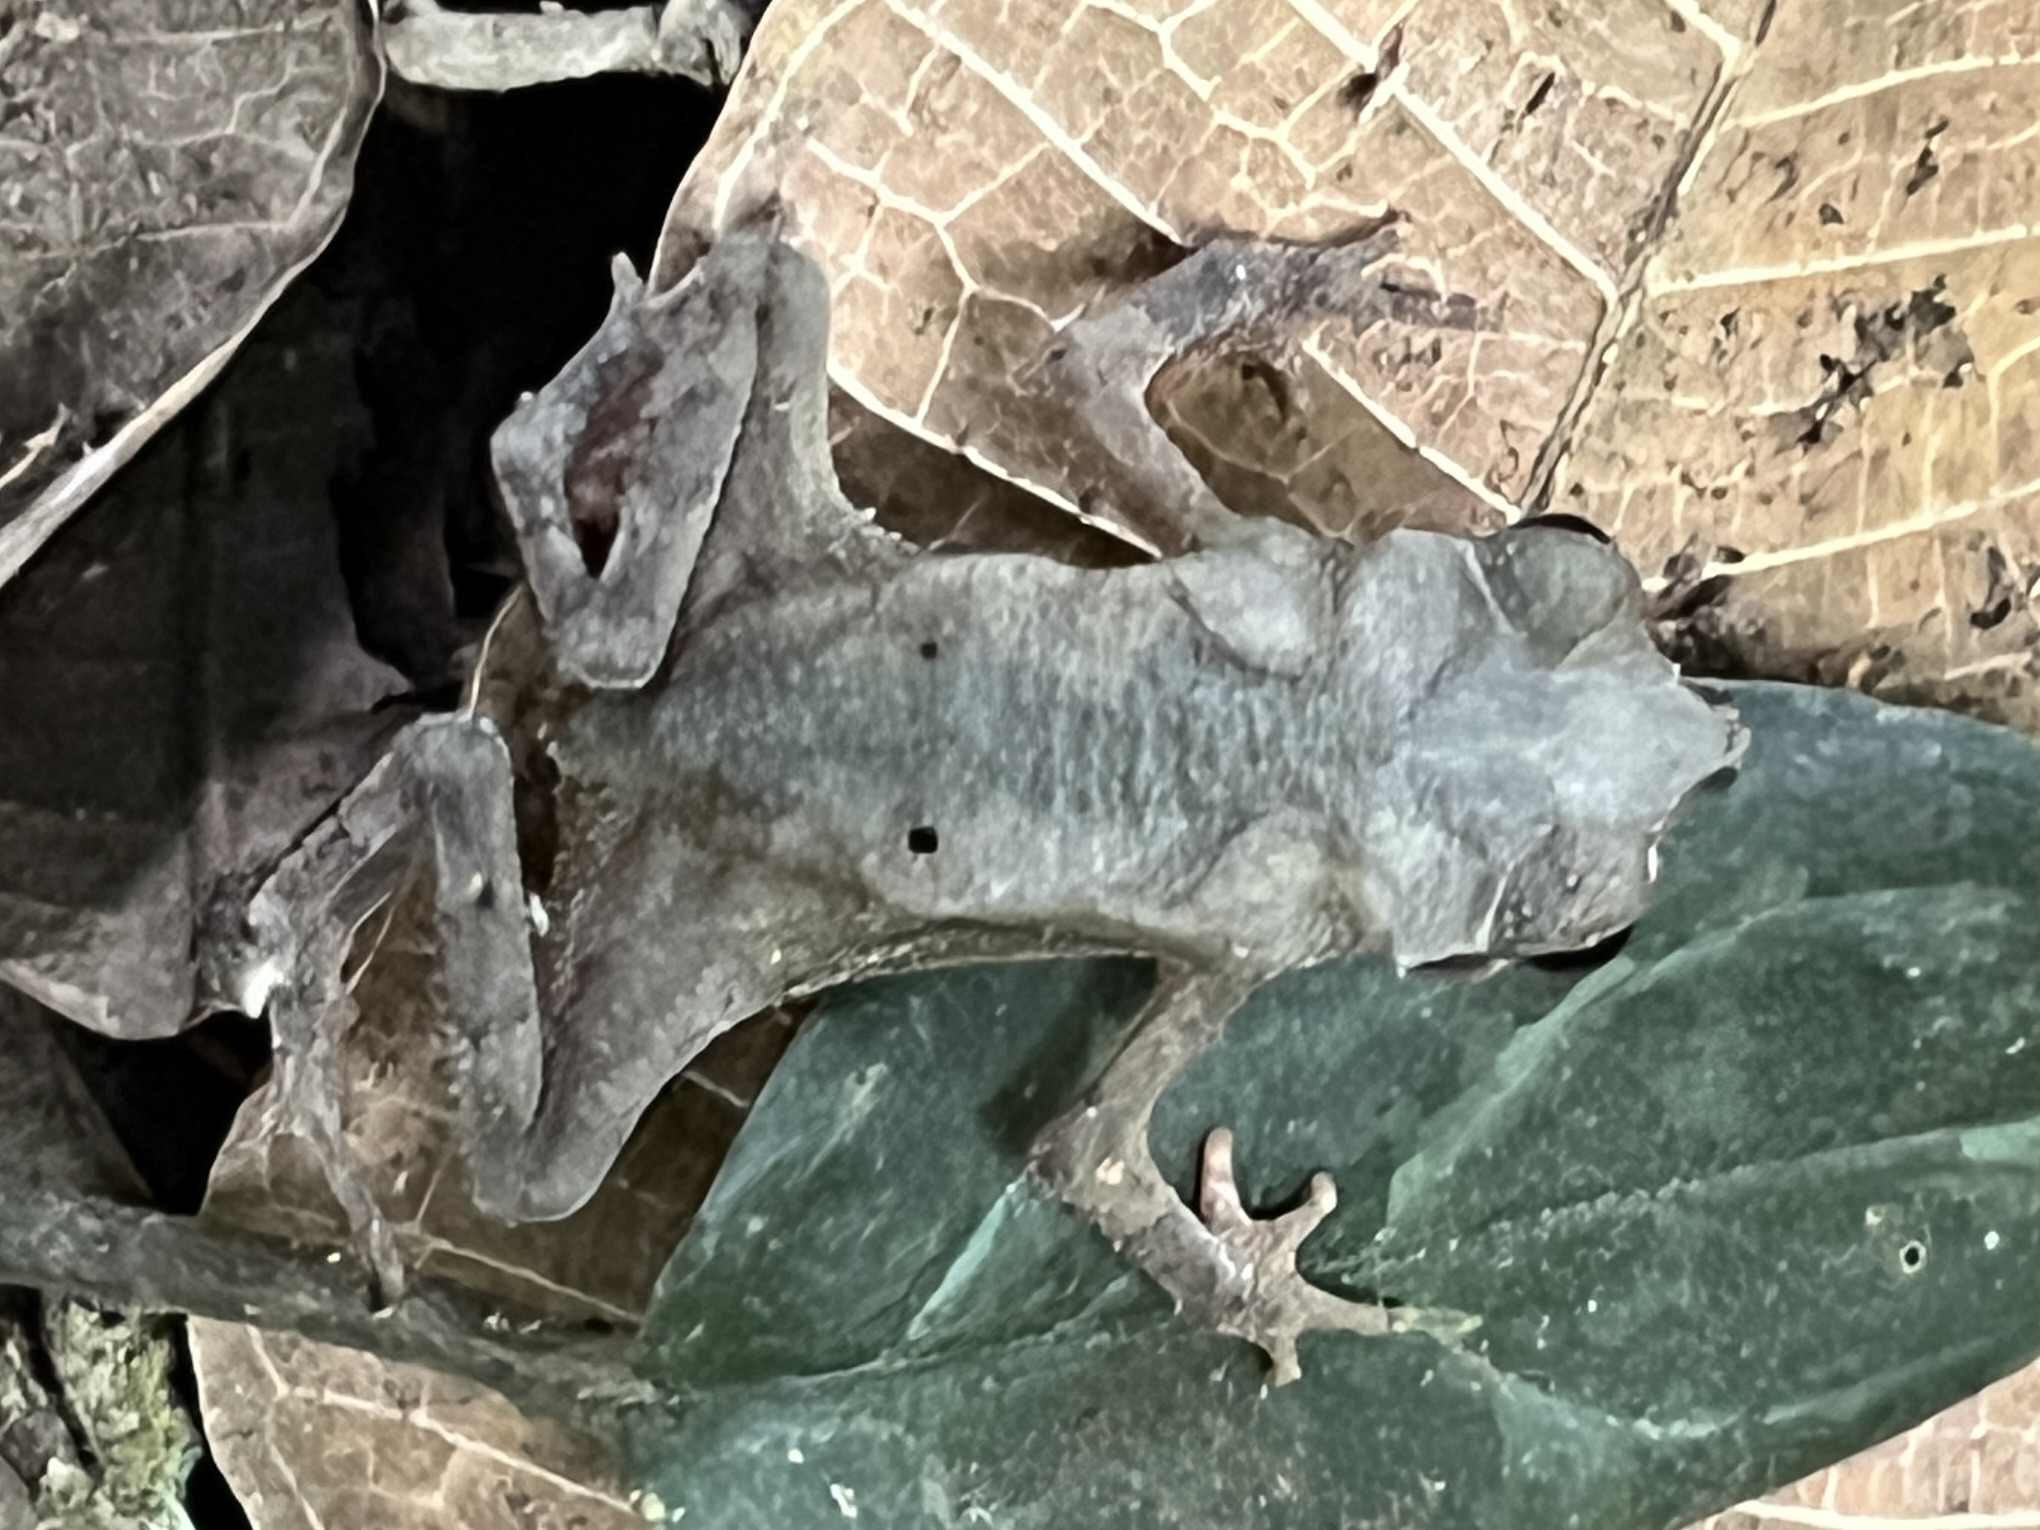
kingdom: Animalia
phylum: Chordata
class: Amphibia
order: Anura
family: Bufonidae
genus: Rhinella
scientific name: Rhinella alata
